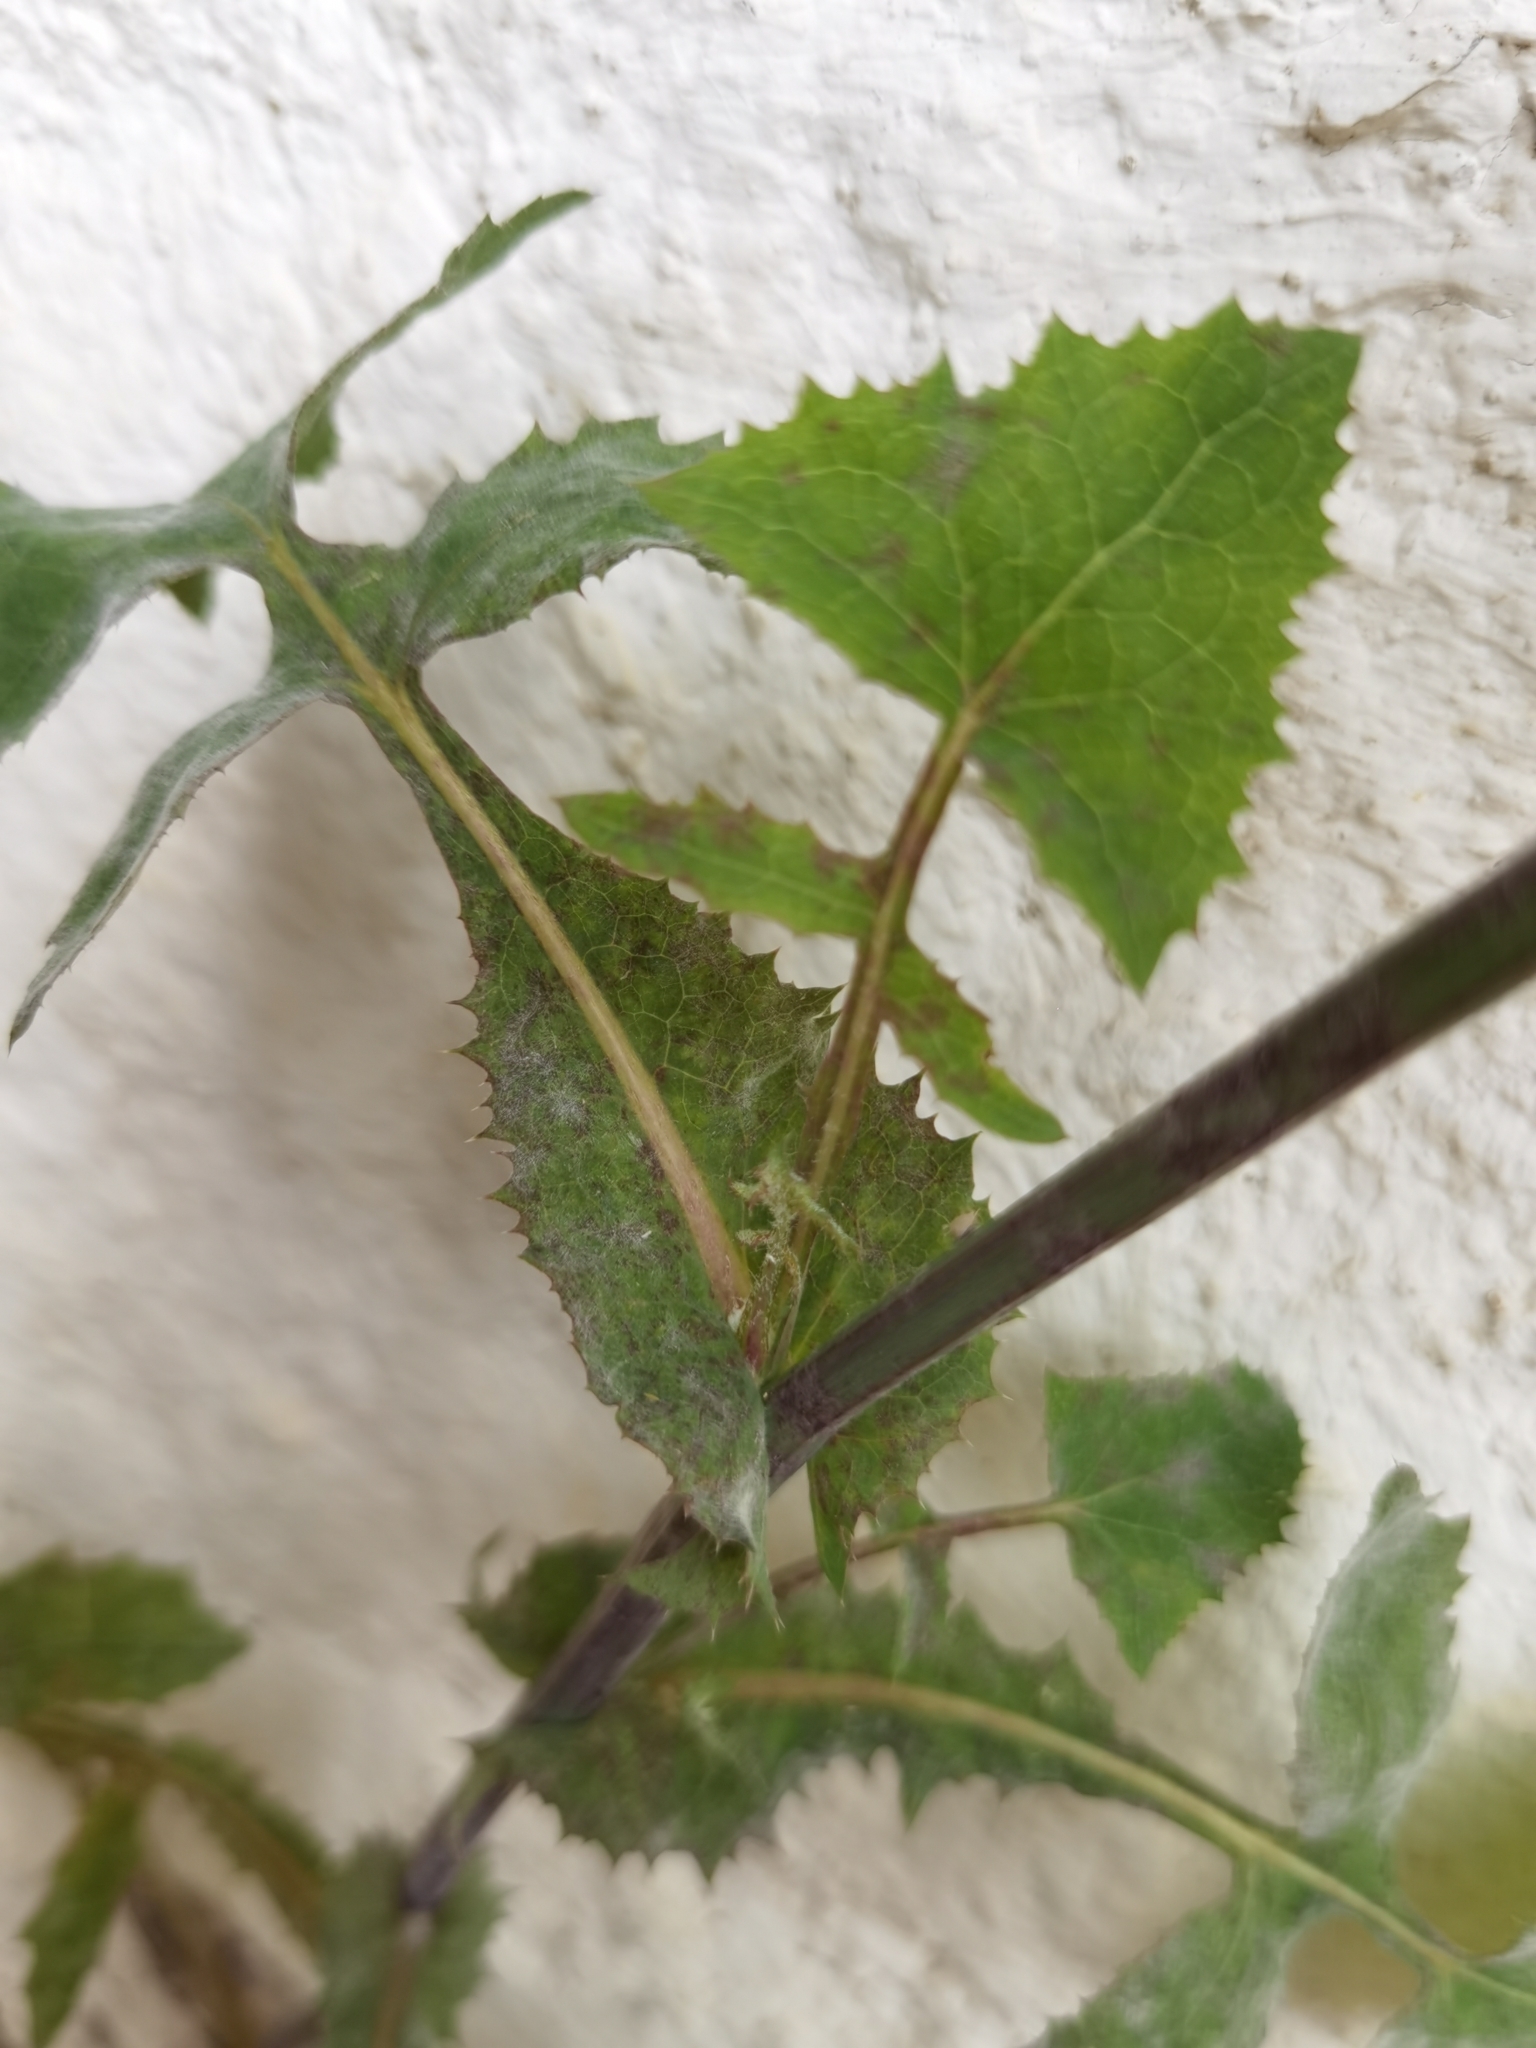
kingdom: Plantae
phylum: Tracheophyta
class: Magnoliopsida
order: Asterales
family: Asteraceae
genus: Sonchus
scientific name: Sonchus oleraceus
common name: Common sowthistle
